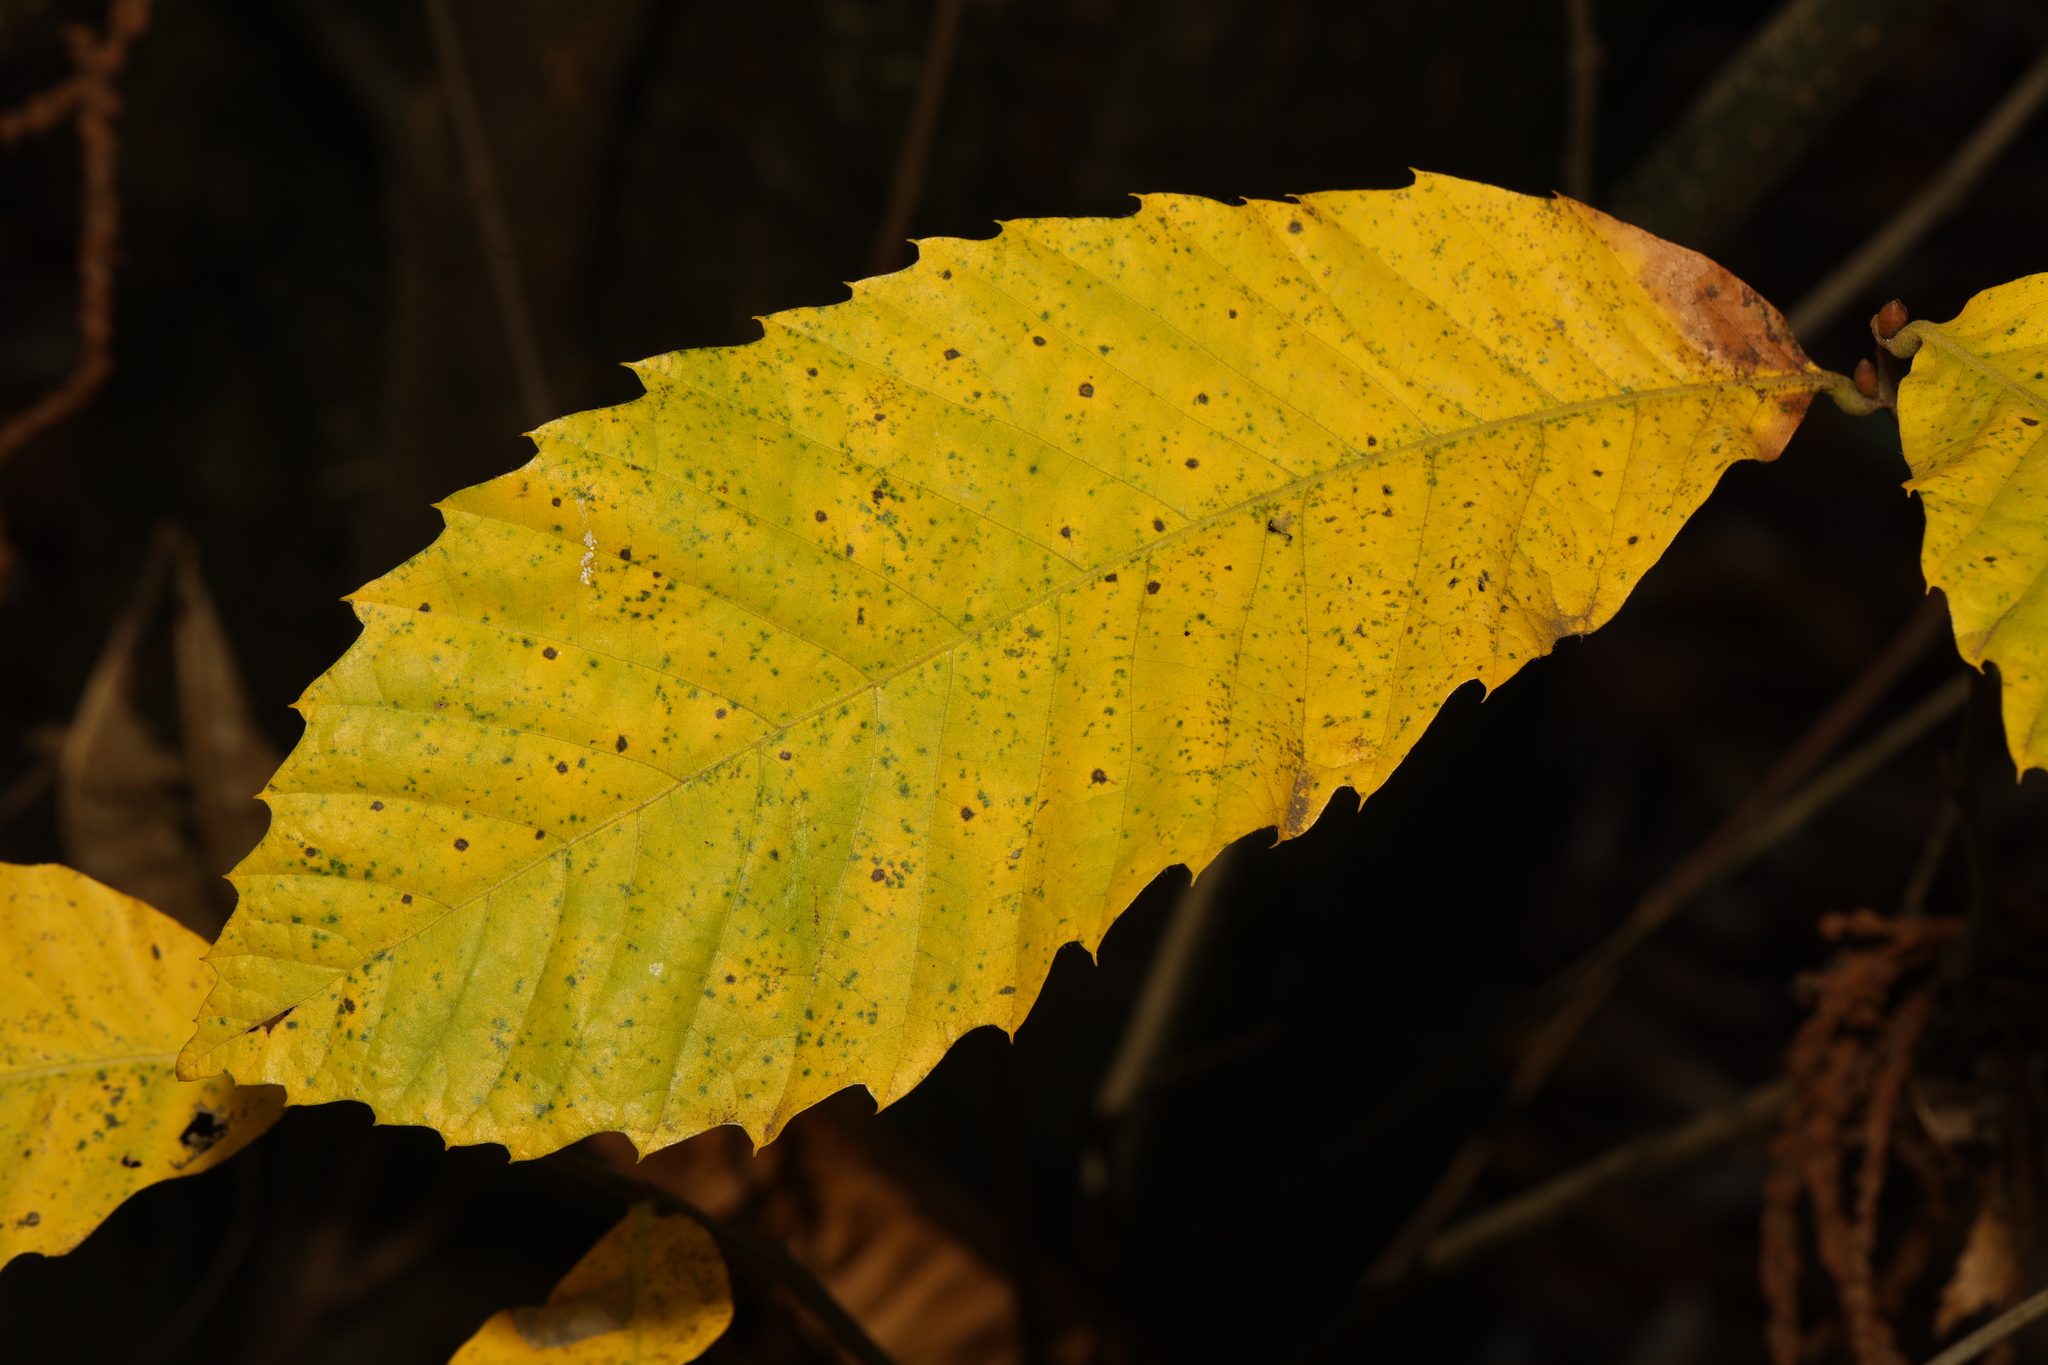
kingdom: Plantae
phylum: Tracheophyta
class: Magnoliopsida
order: Fagales
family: Fagaceae
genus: Castanea
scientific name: Castanea sativa
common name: Sweet chestnut
